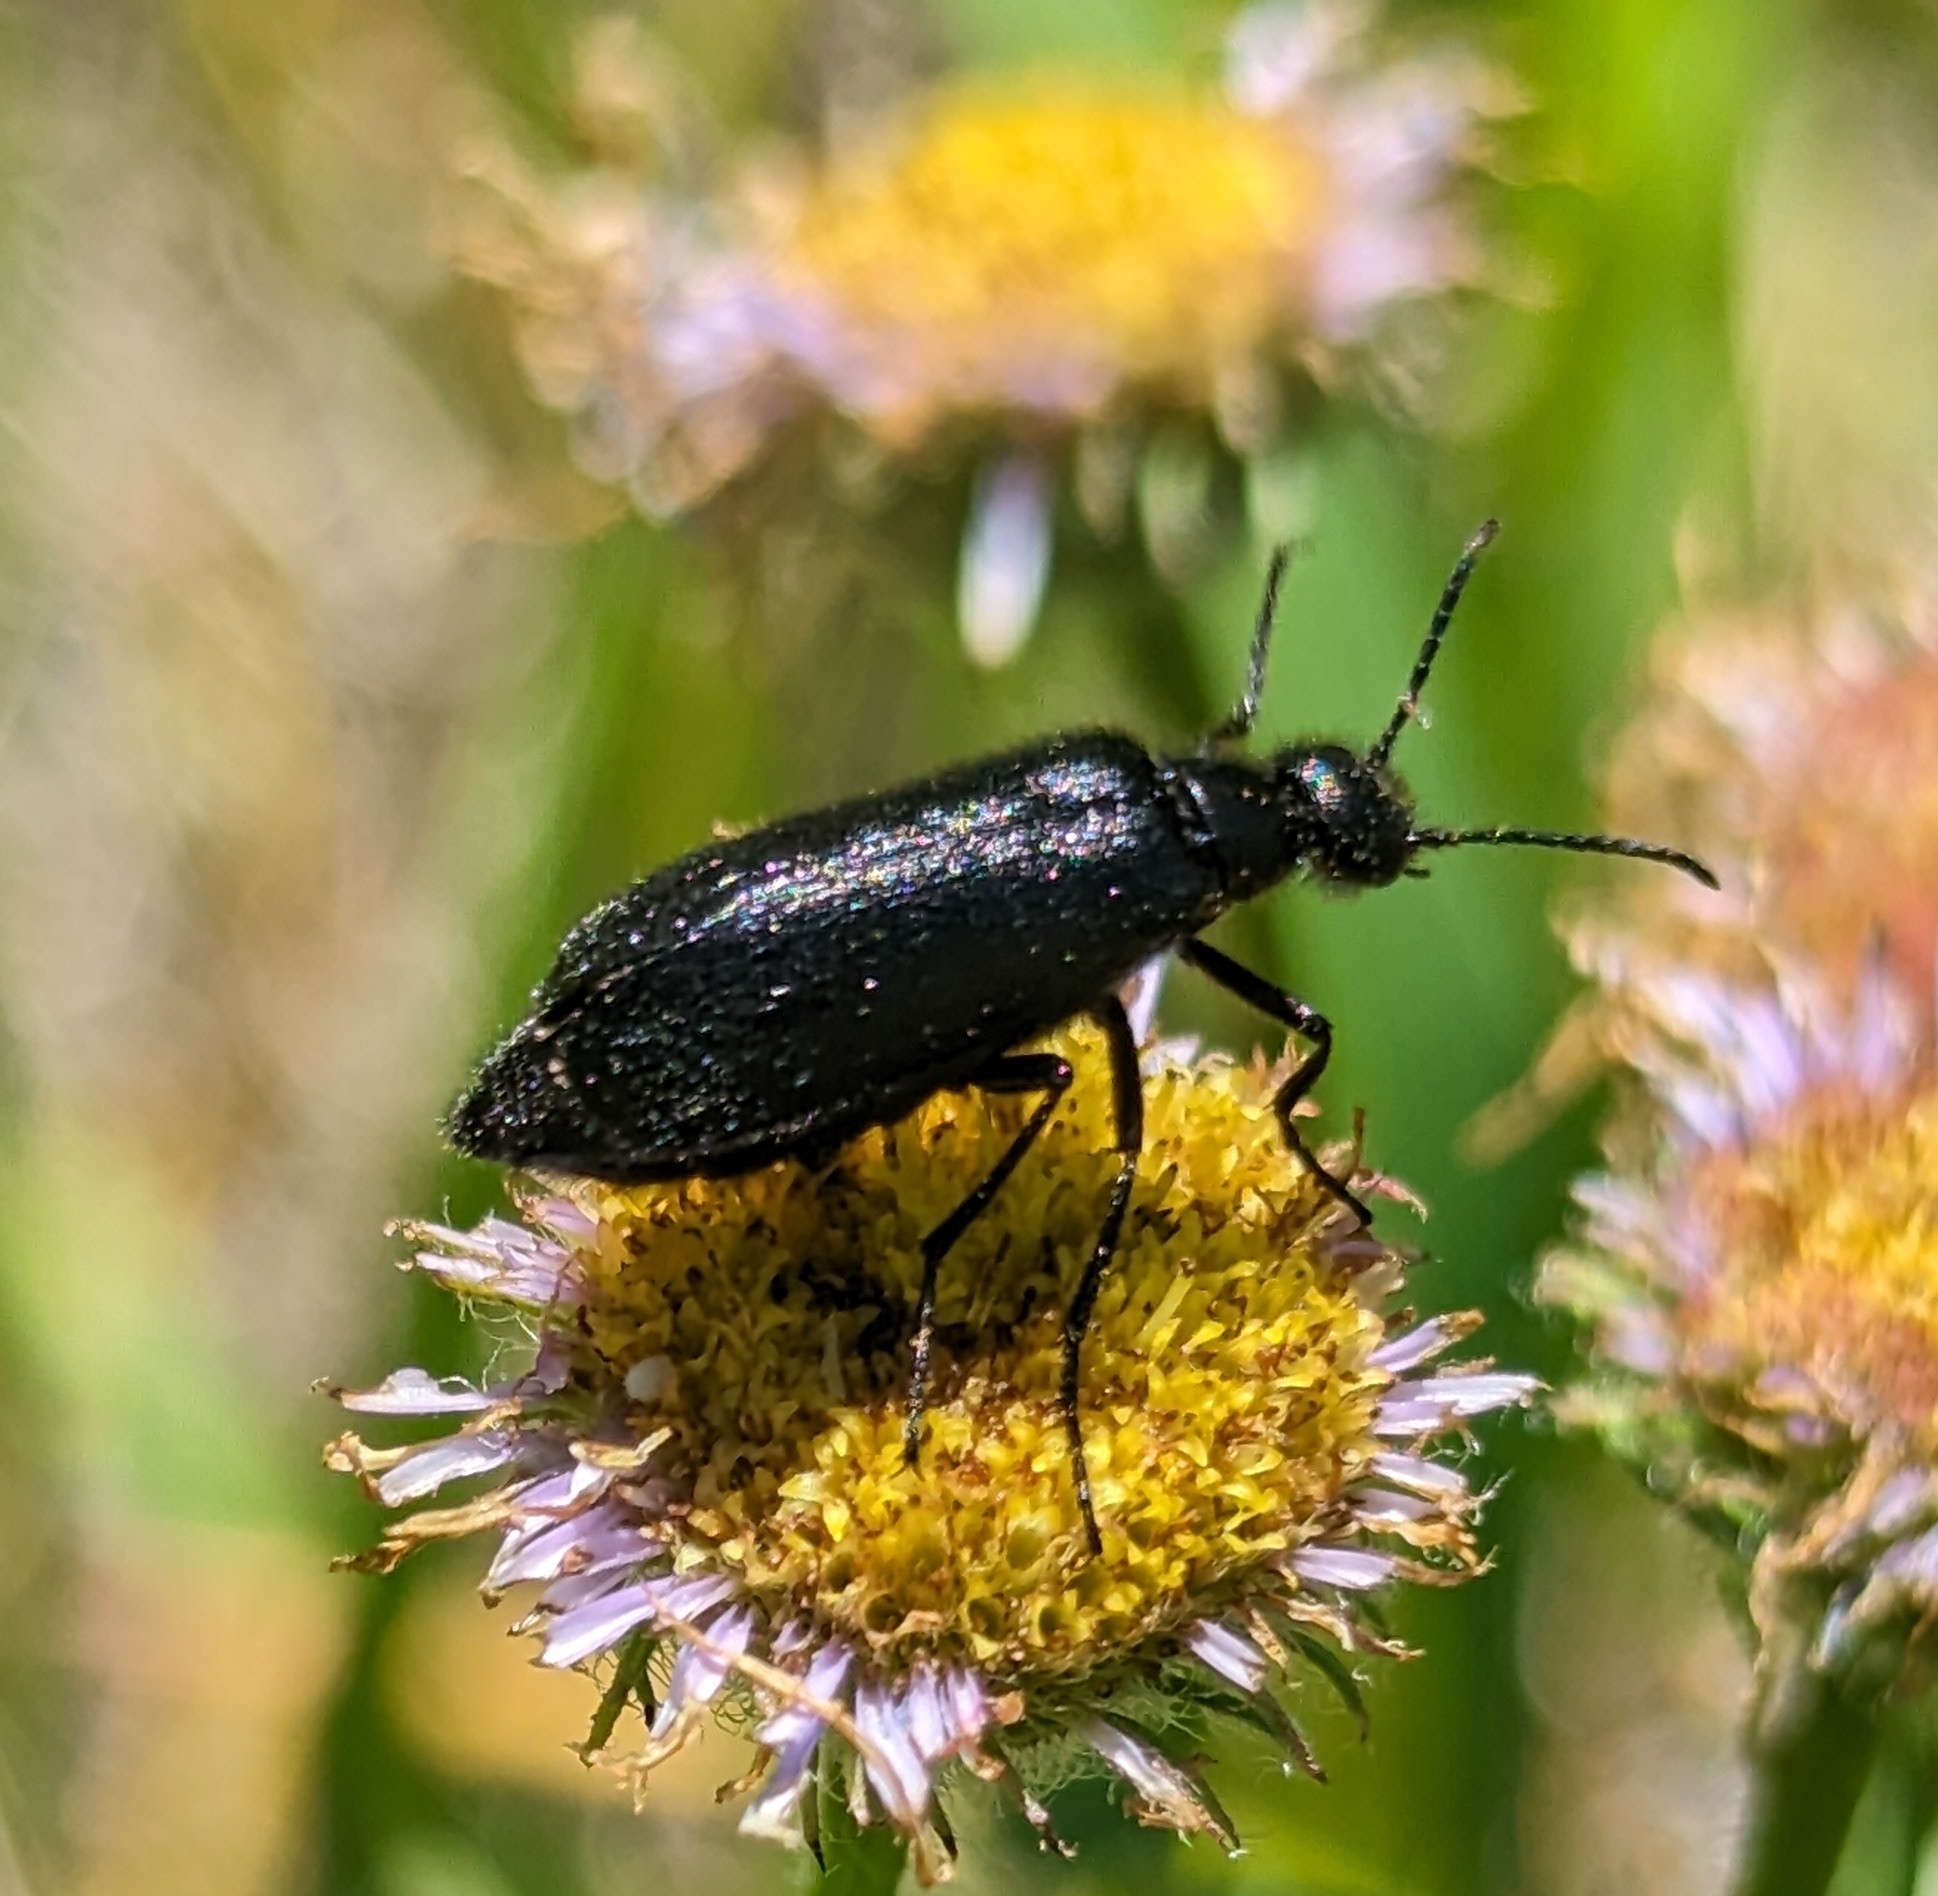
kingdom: Animalia
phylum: Arthropoda
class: Insecta
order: Coleoptera
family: Meloidae
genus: Epicauta
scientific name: Epicauta puncticollis
